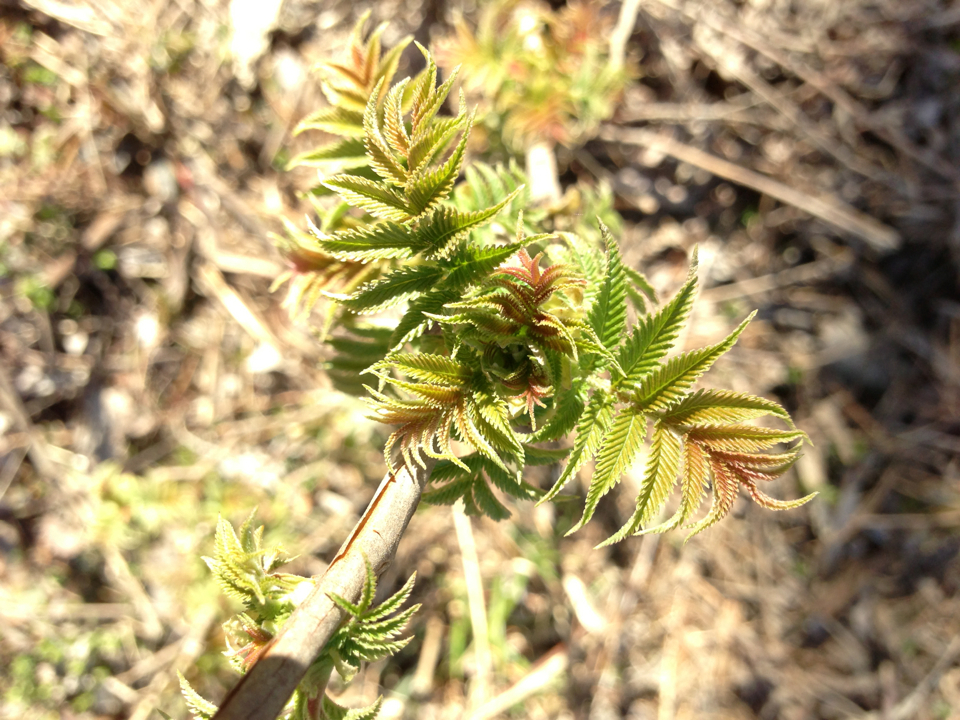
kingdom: Plantae
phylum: Tracheophyta
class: Magnoliopsida
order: Rosales
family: Rosaceae
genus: Sorbaria
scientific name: Sorbaria sorbifolia
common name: False spiraea
